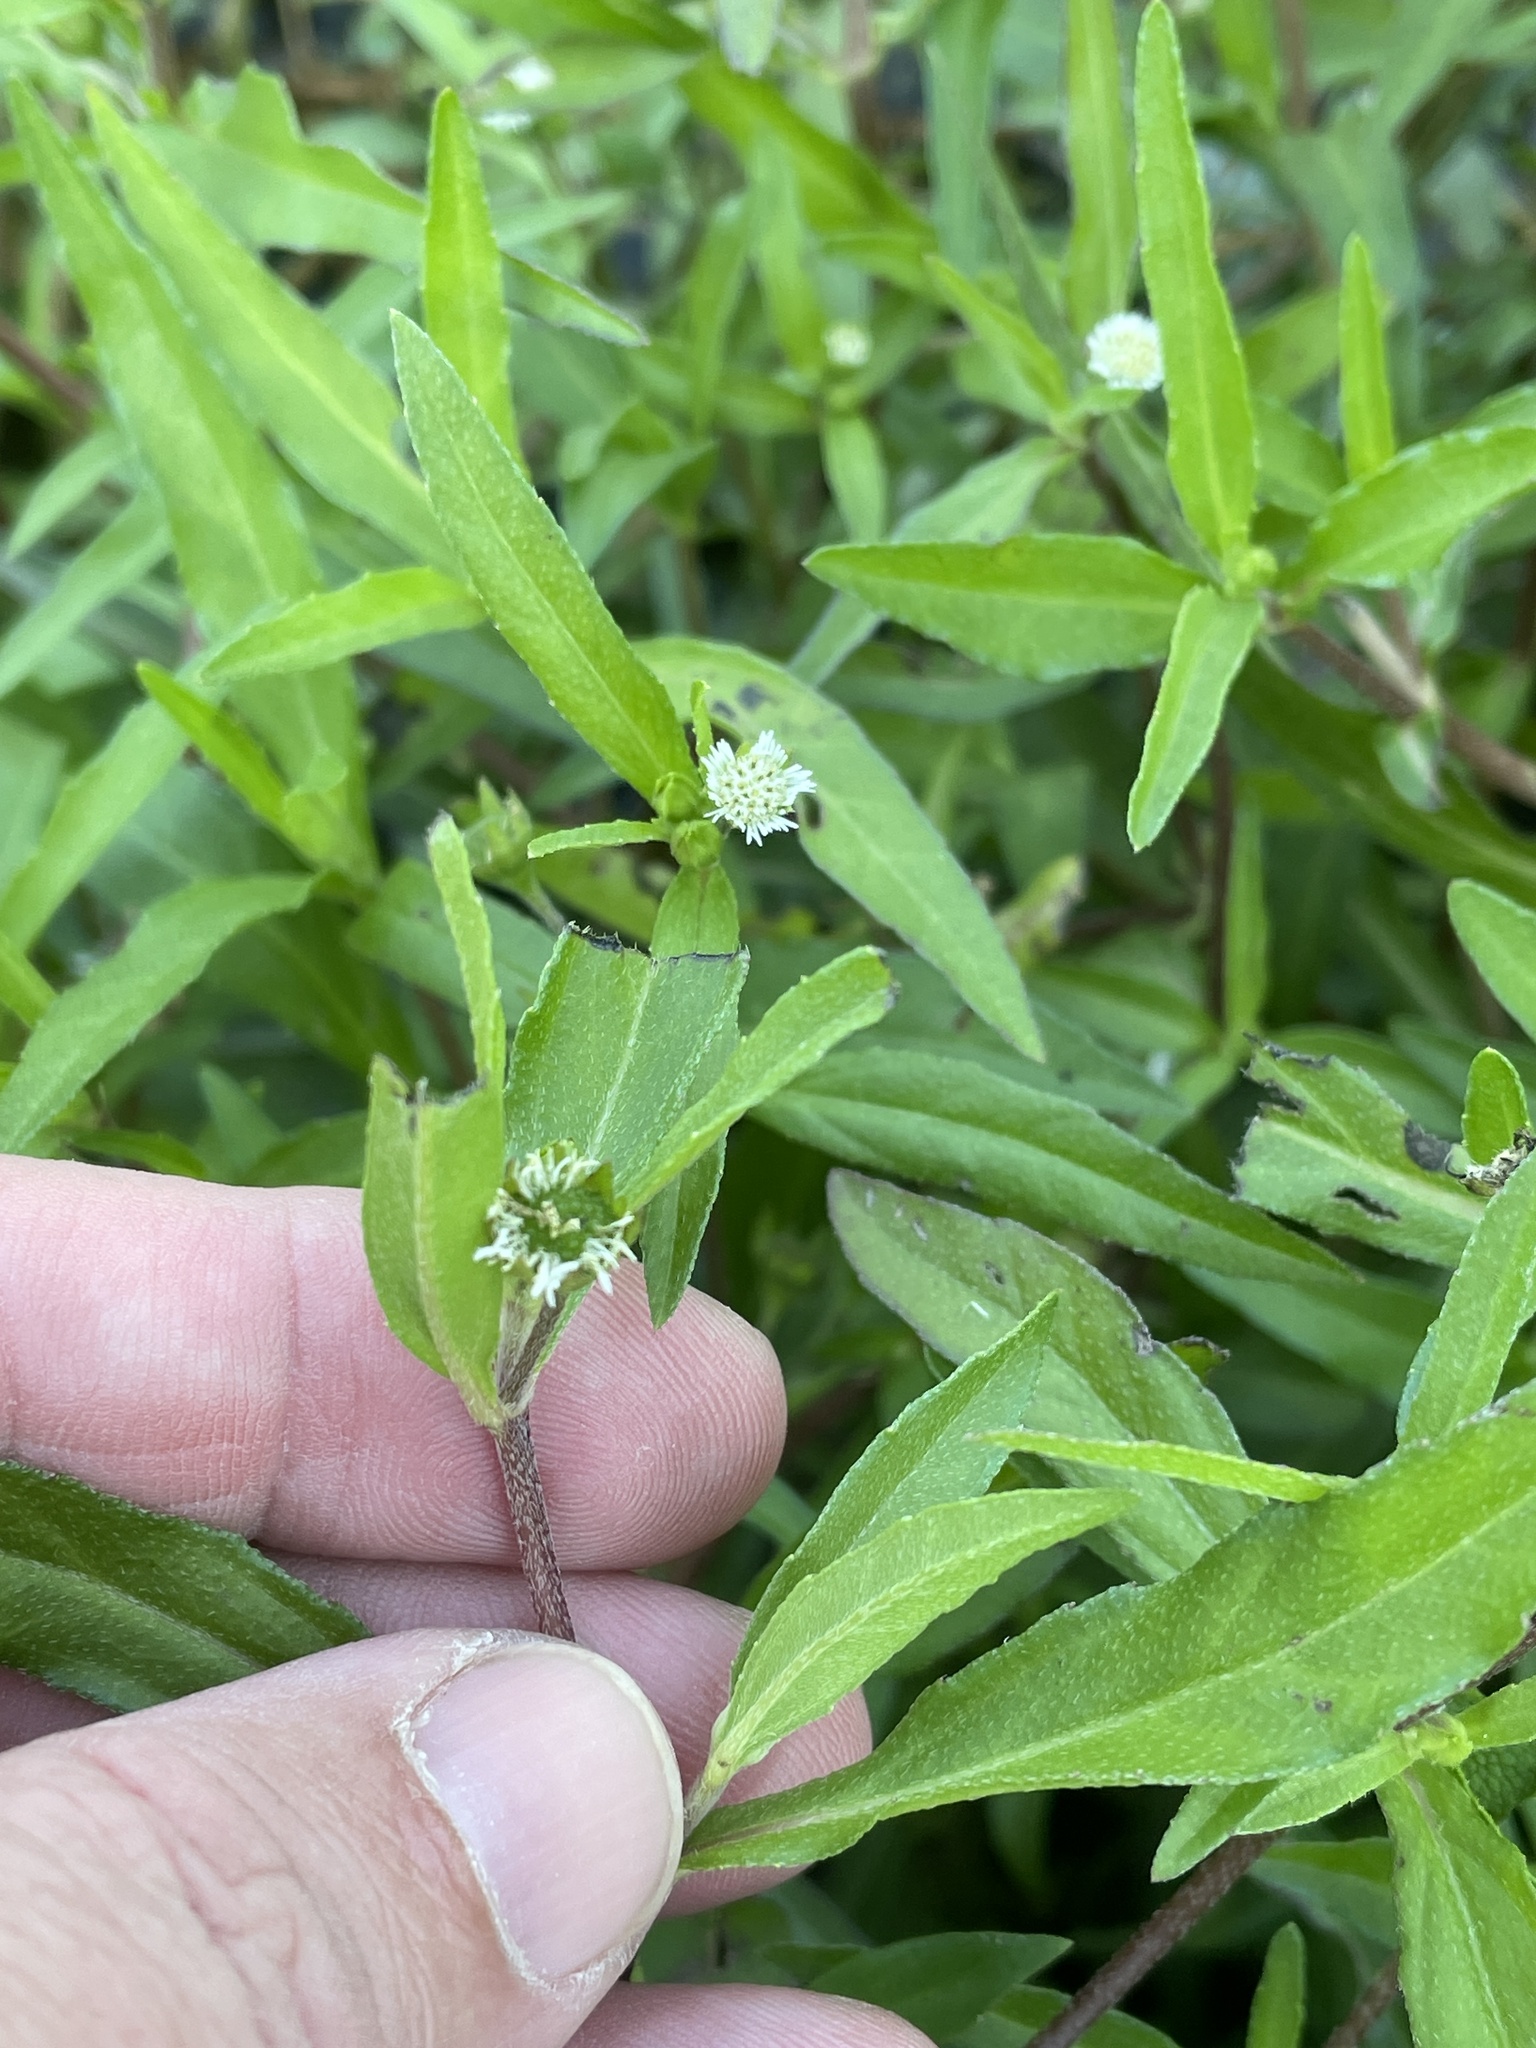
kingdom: Plantae
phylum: Tracheophyta
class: Magnoliopsida
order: Asterales
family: Asteraceae
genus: Eclipta
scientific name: Eclipta prostrata
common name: False daisy
